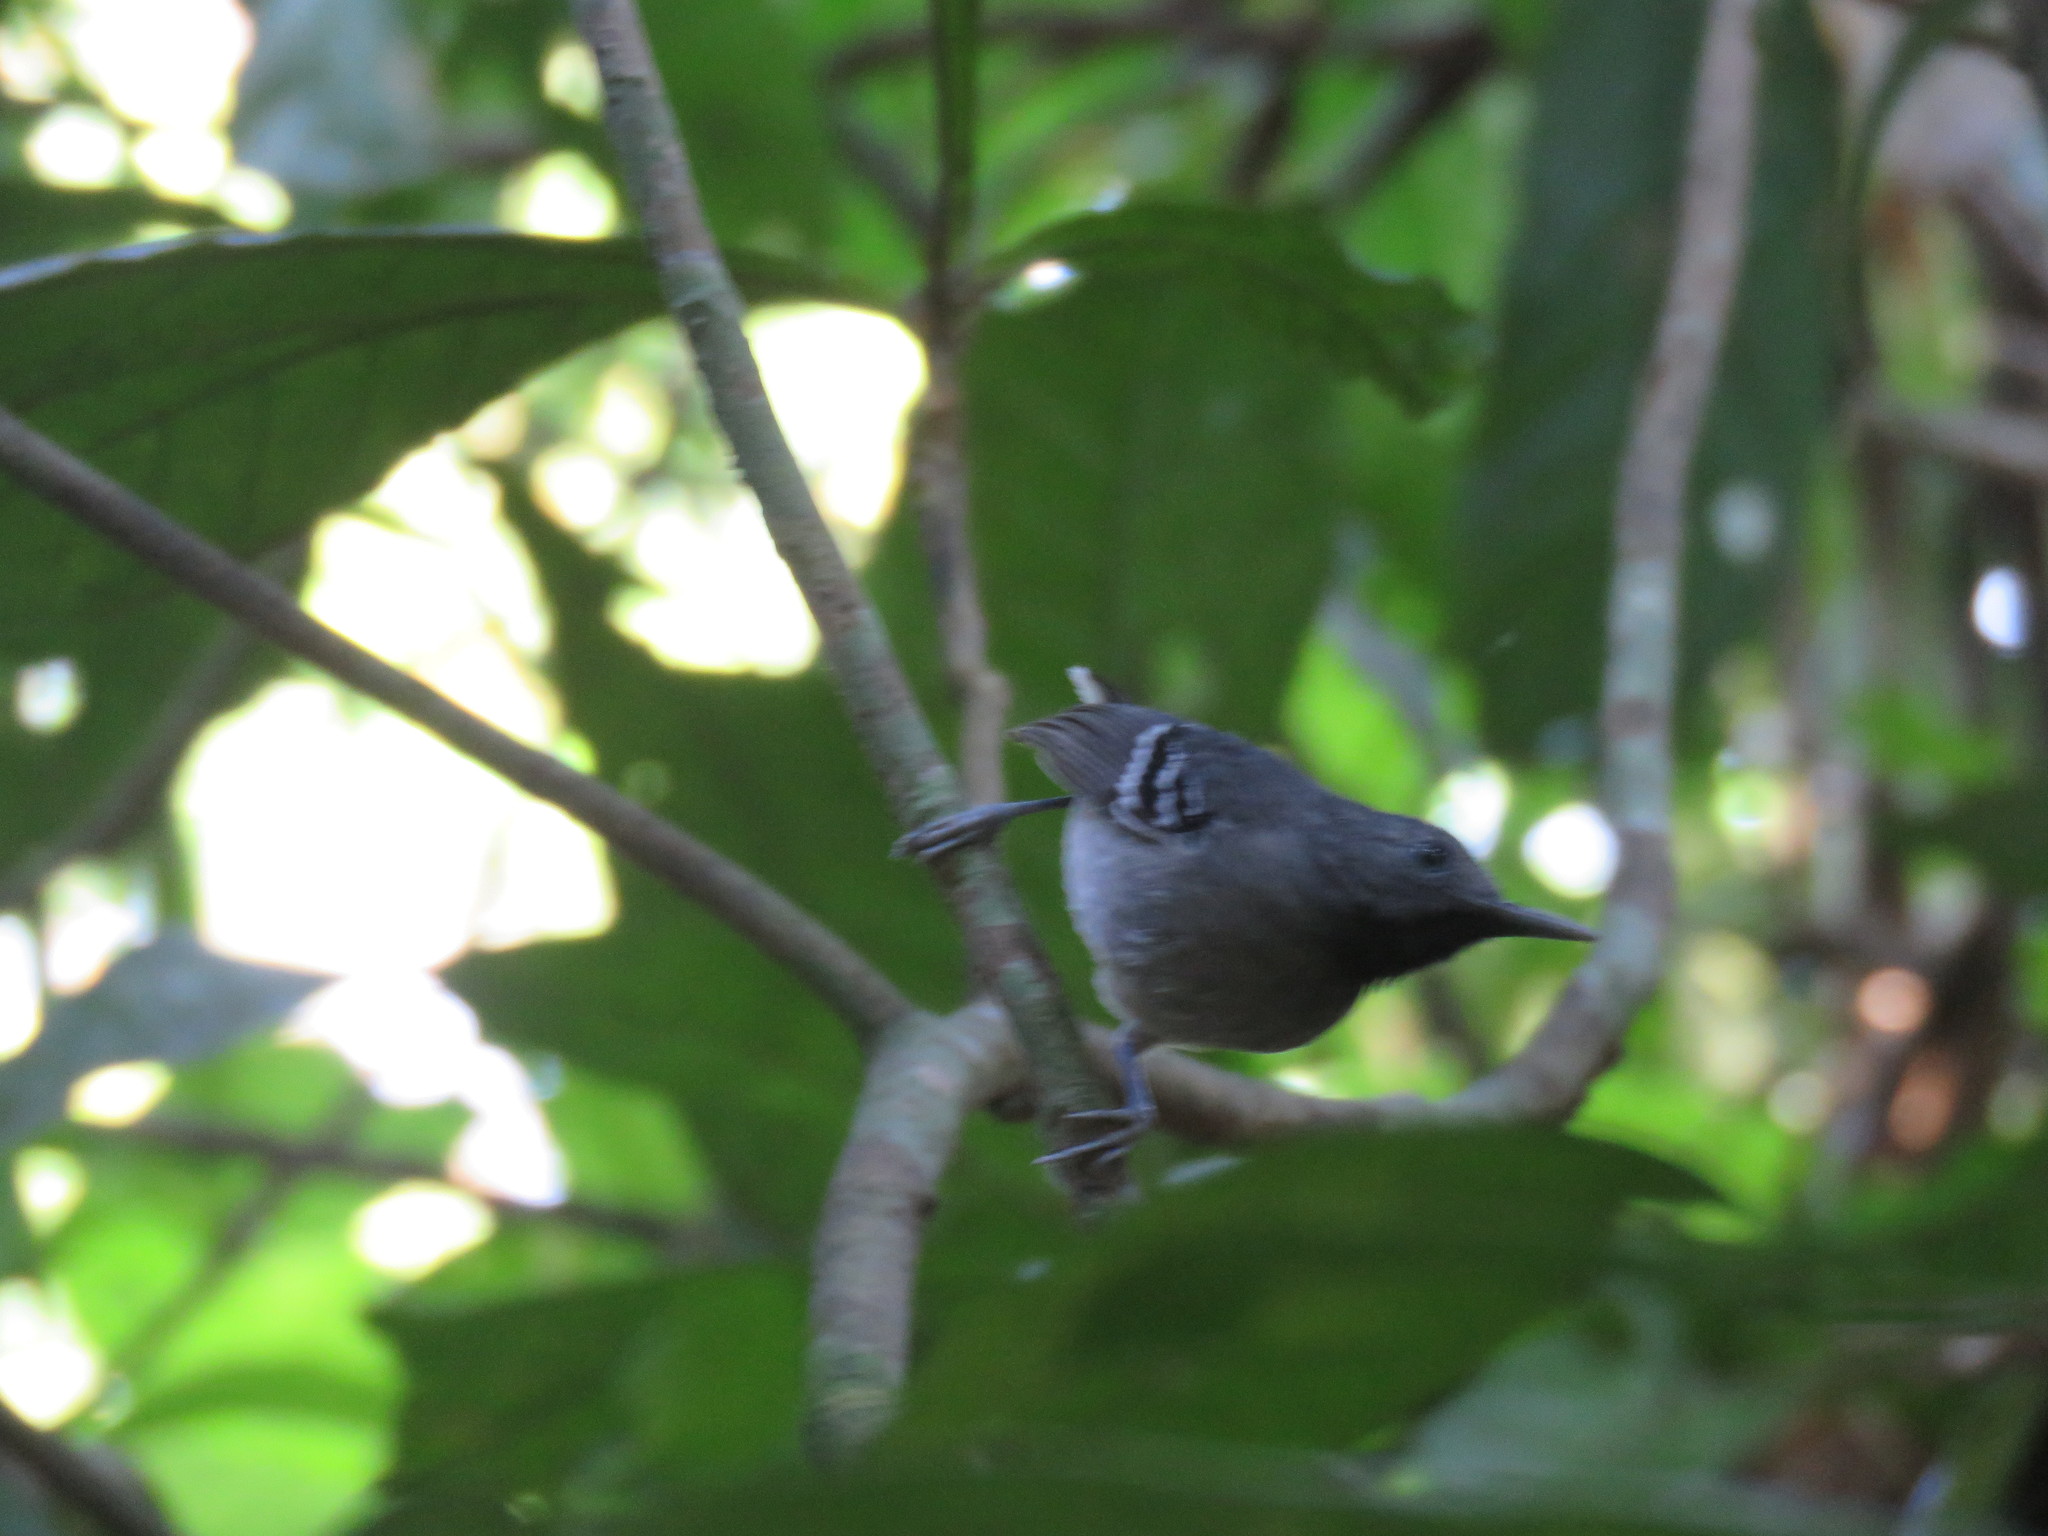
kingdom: Animalia
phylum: Chordata
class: Aves
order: Passeriformes
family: Thamnophilidae
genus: Epinecrophylla
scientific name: Epinecrophylla ornata
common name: Ornate antwren
